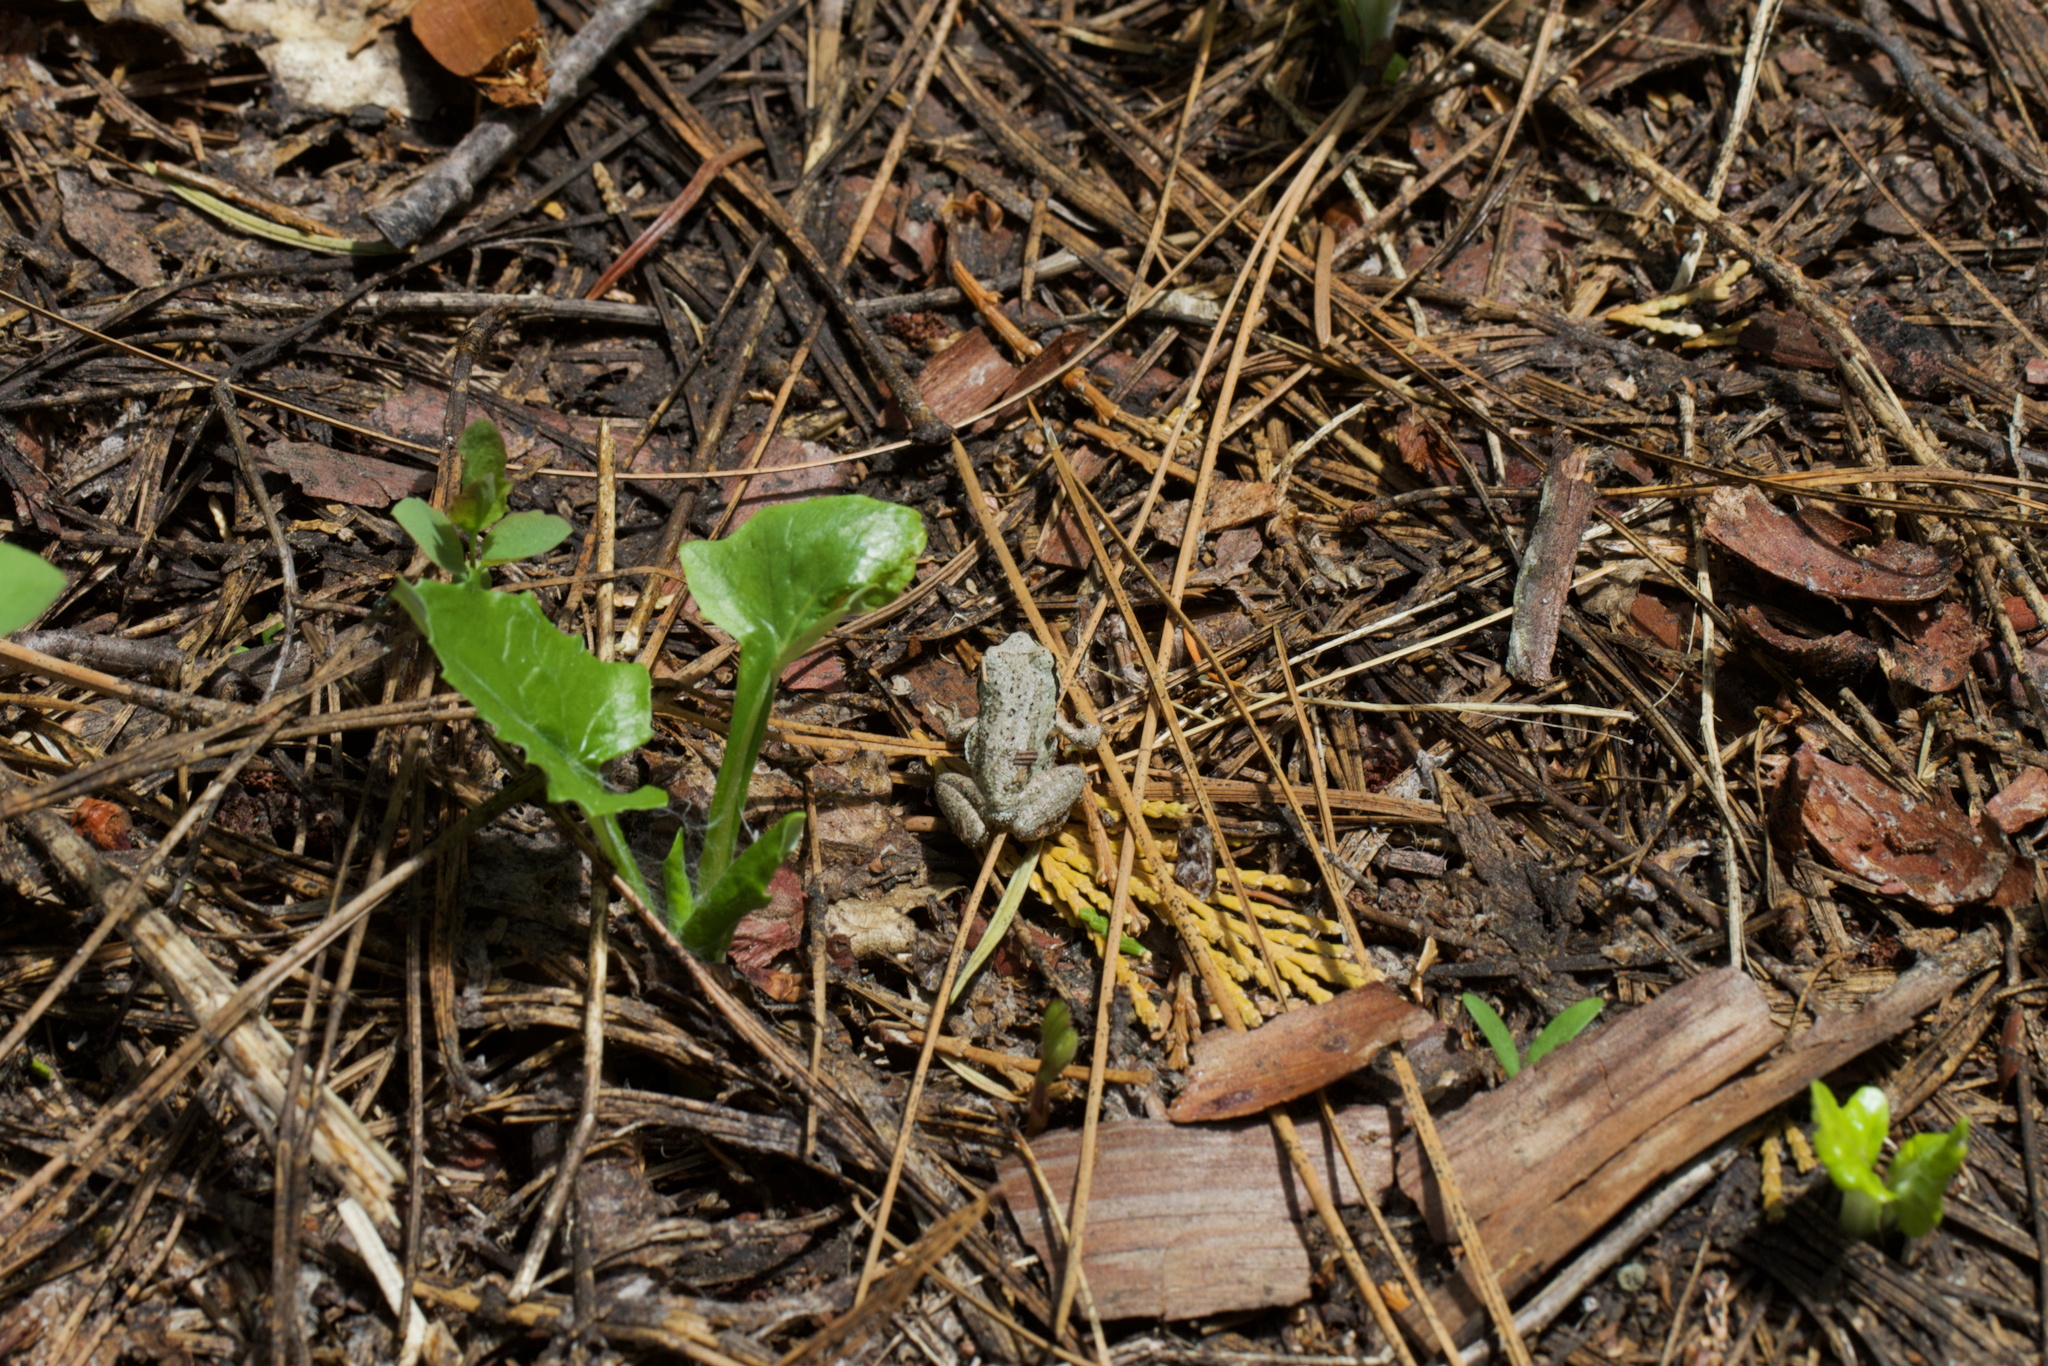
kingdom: Animalia
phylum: Chordata
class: Amphibia
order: Anura
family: Hylidae
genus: Pseudacris
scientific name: Pseudacris regilla
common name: Pacific chorus frog
